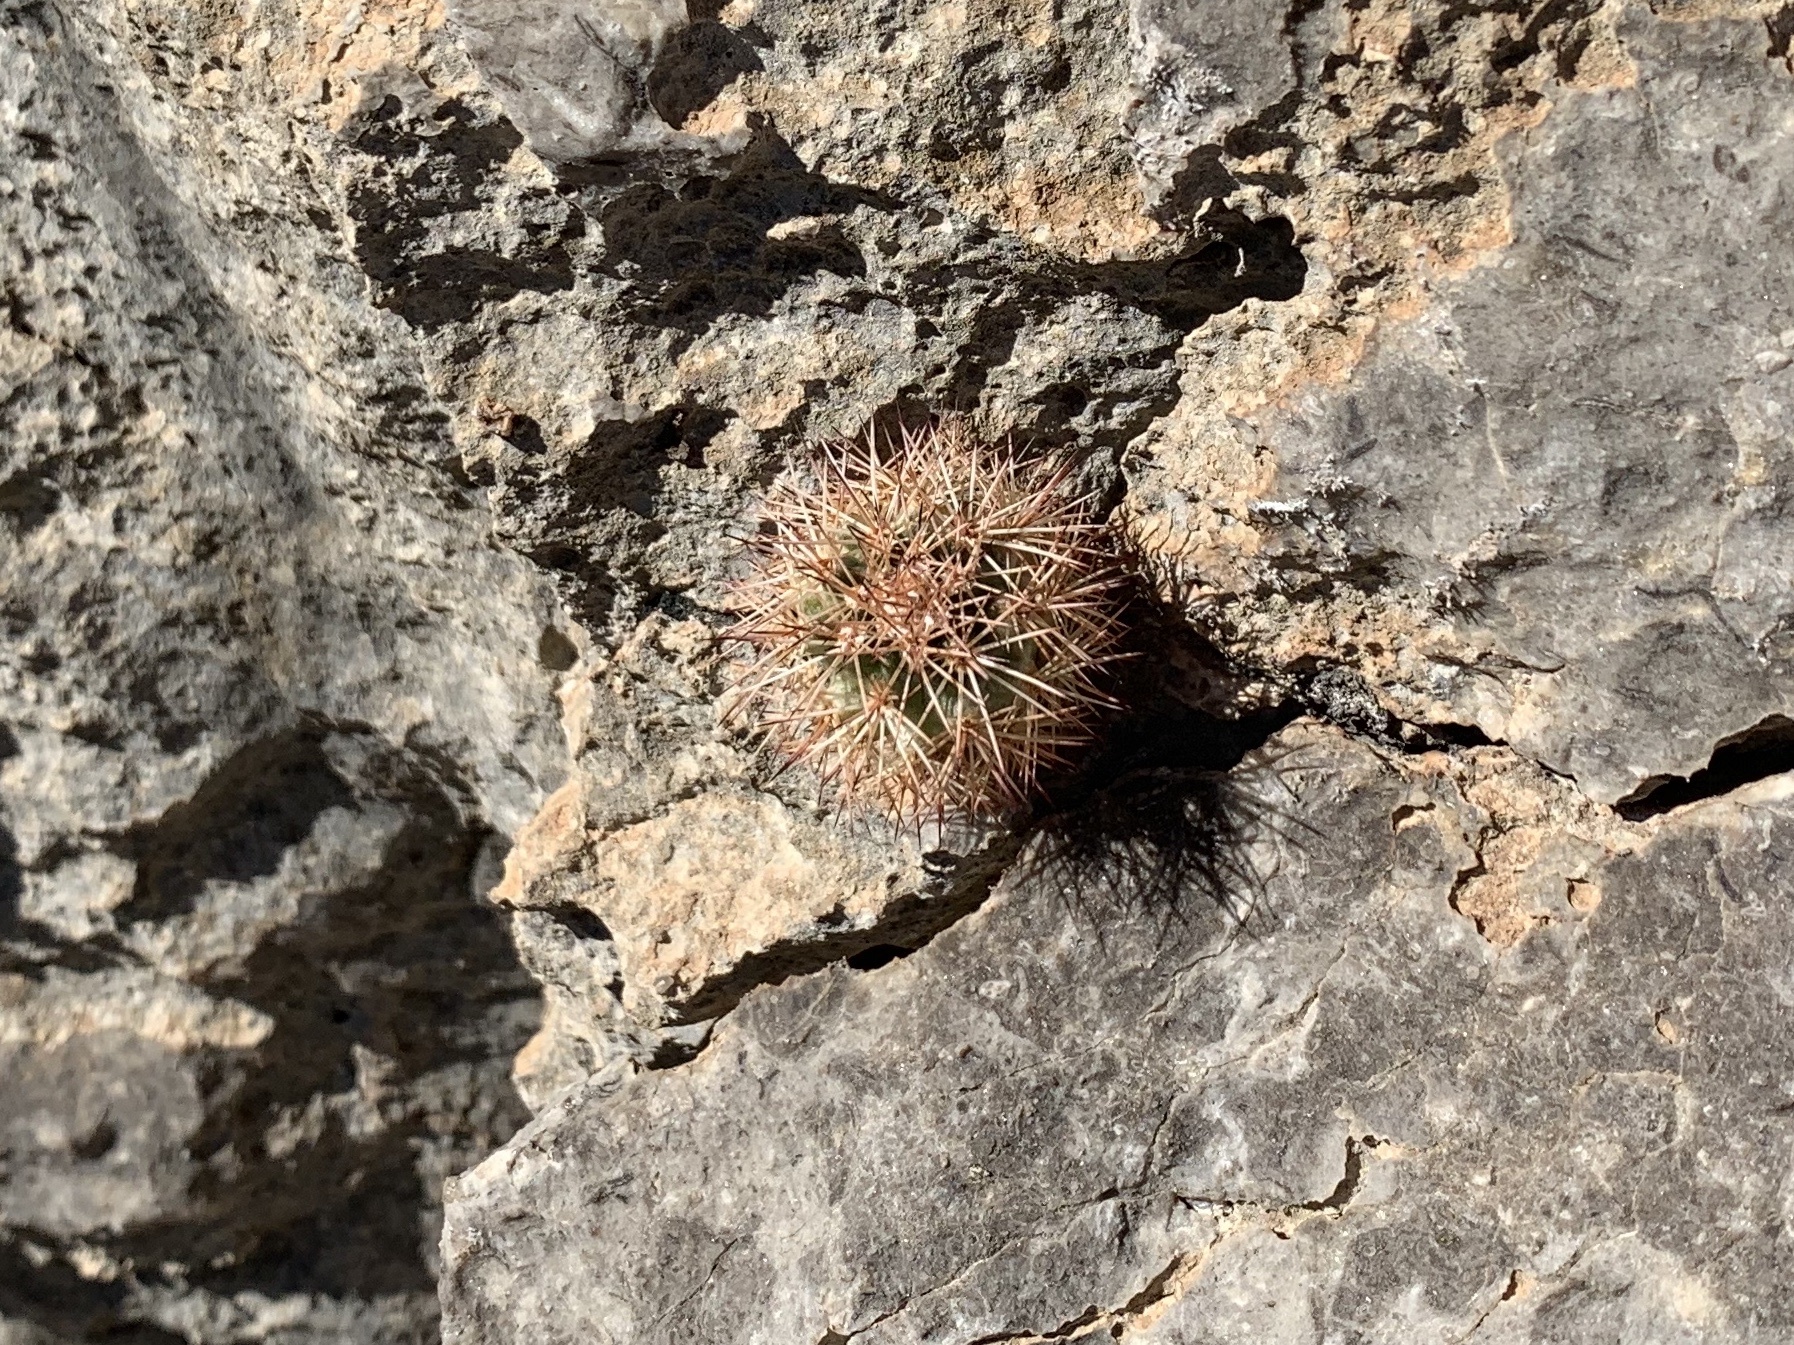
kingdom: Plantae
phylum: Tracheophyta
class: Magnoliopsida
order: Caryophyllales
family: Cactaceae
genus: Echinocereus
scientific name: Echinocereus dasyacanthus
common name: Spiny hedgehog cactus
